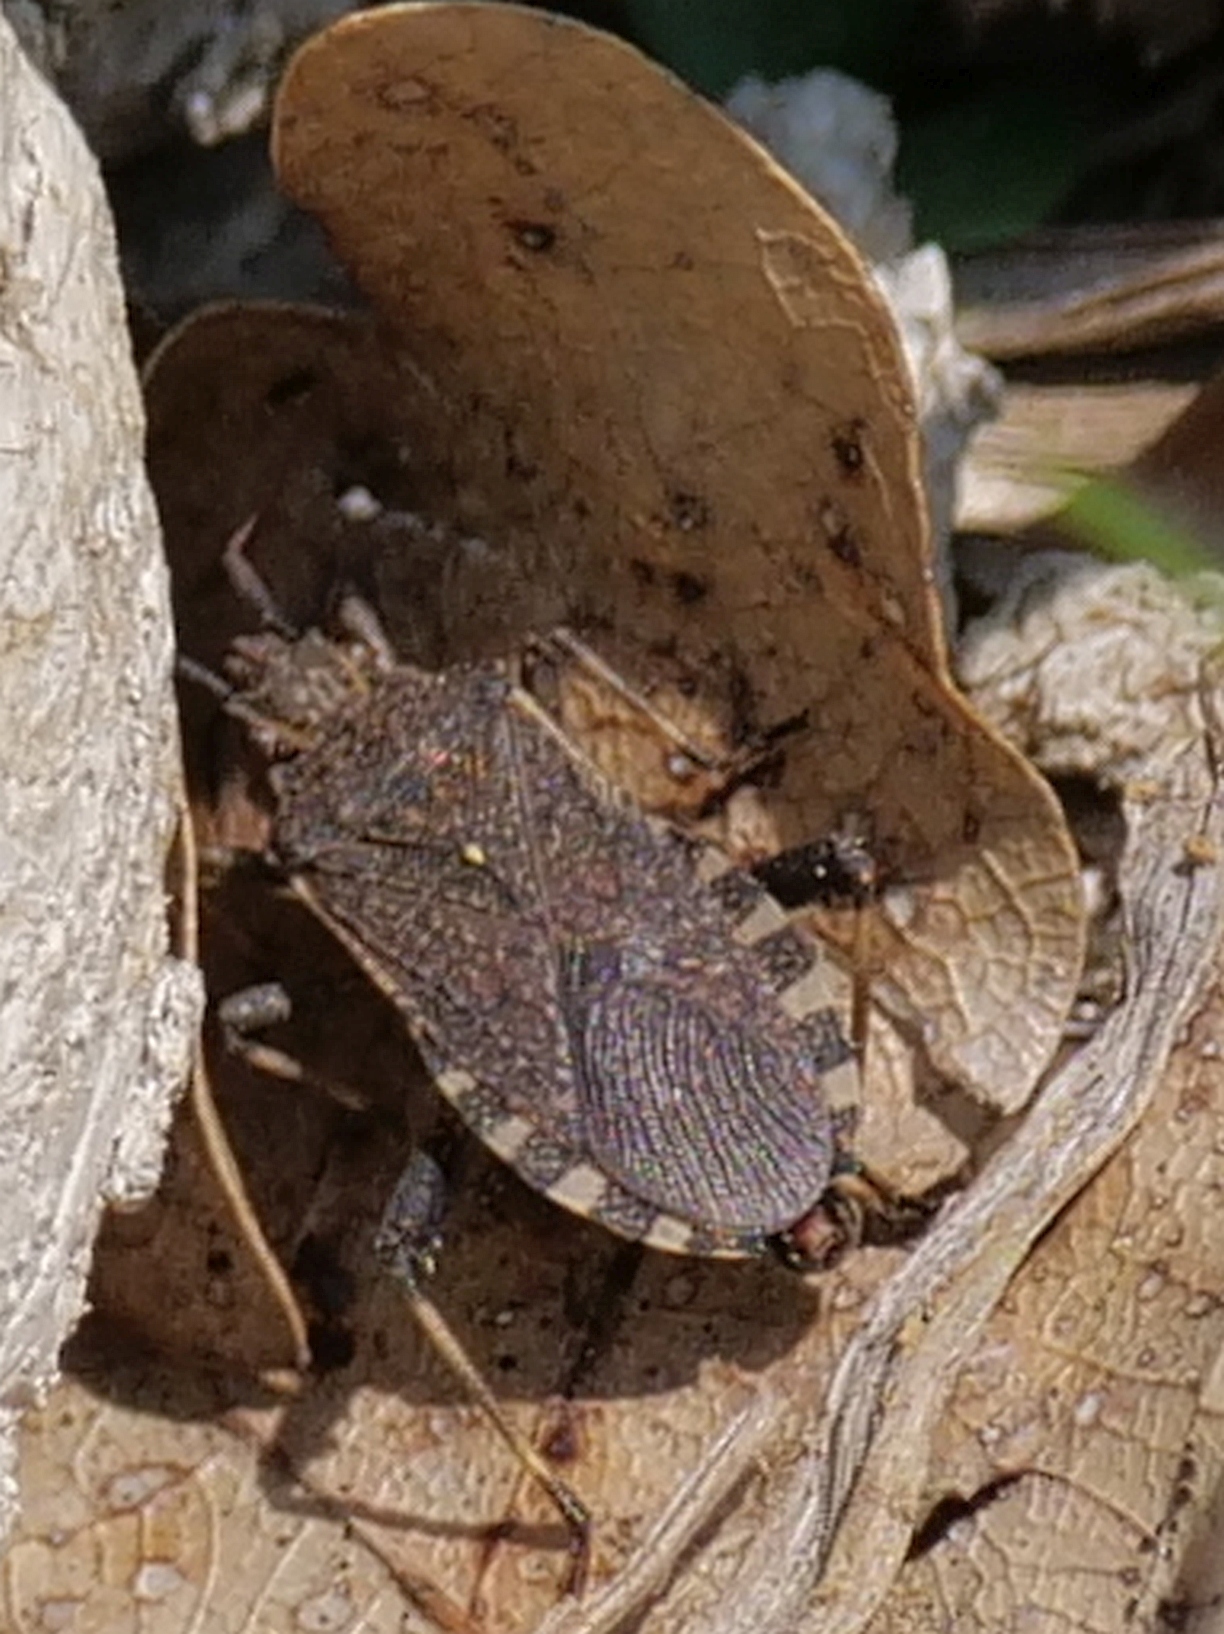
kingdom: Animalia
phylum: Arthropoda
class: Insecta
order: Hemiptera
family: Coreidae
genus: Ceraleptus
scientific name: Ceraleptus gracilicornis
